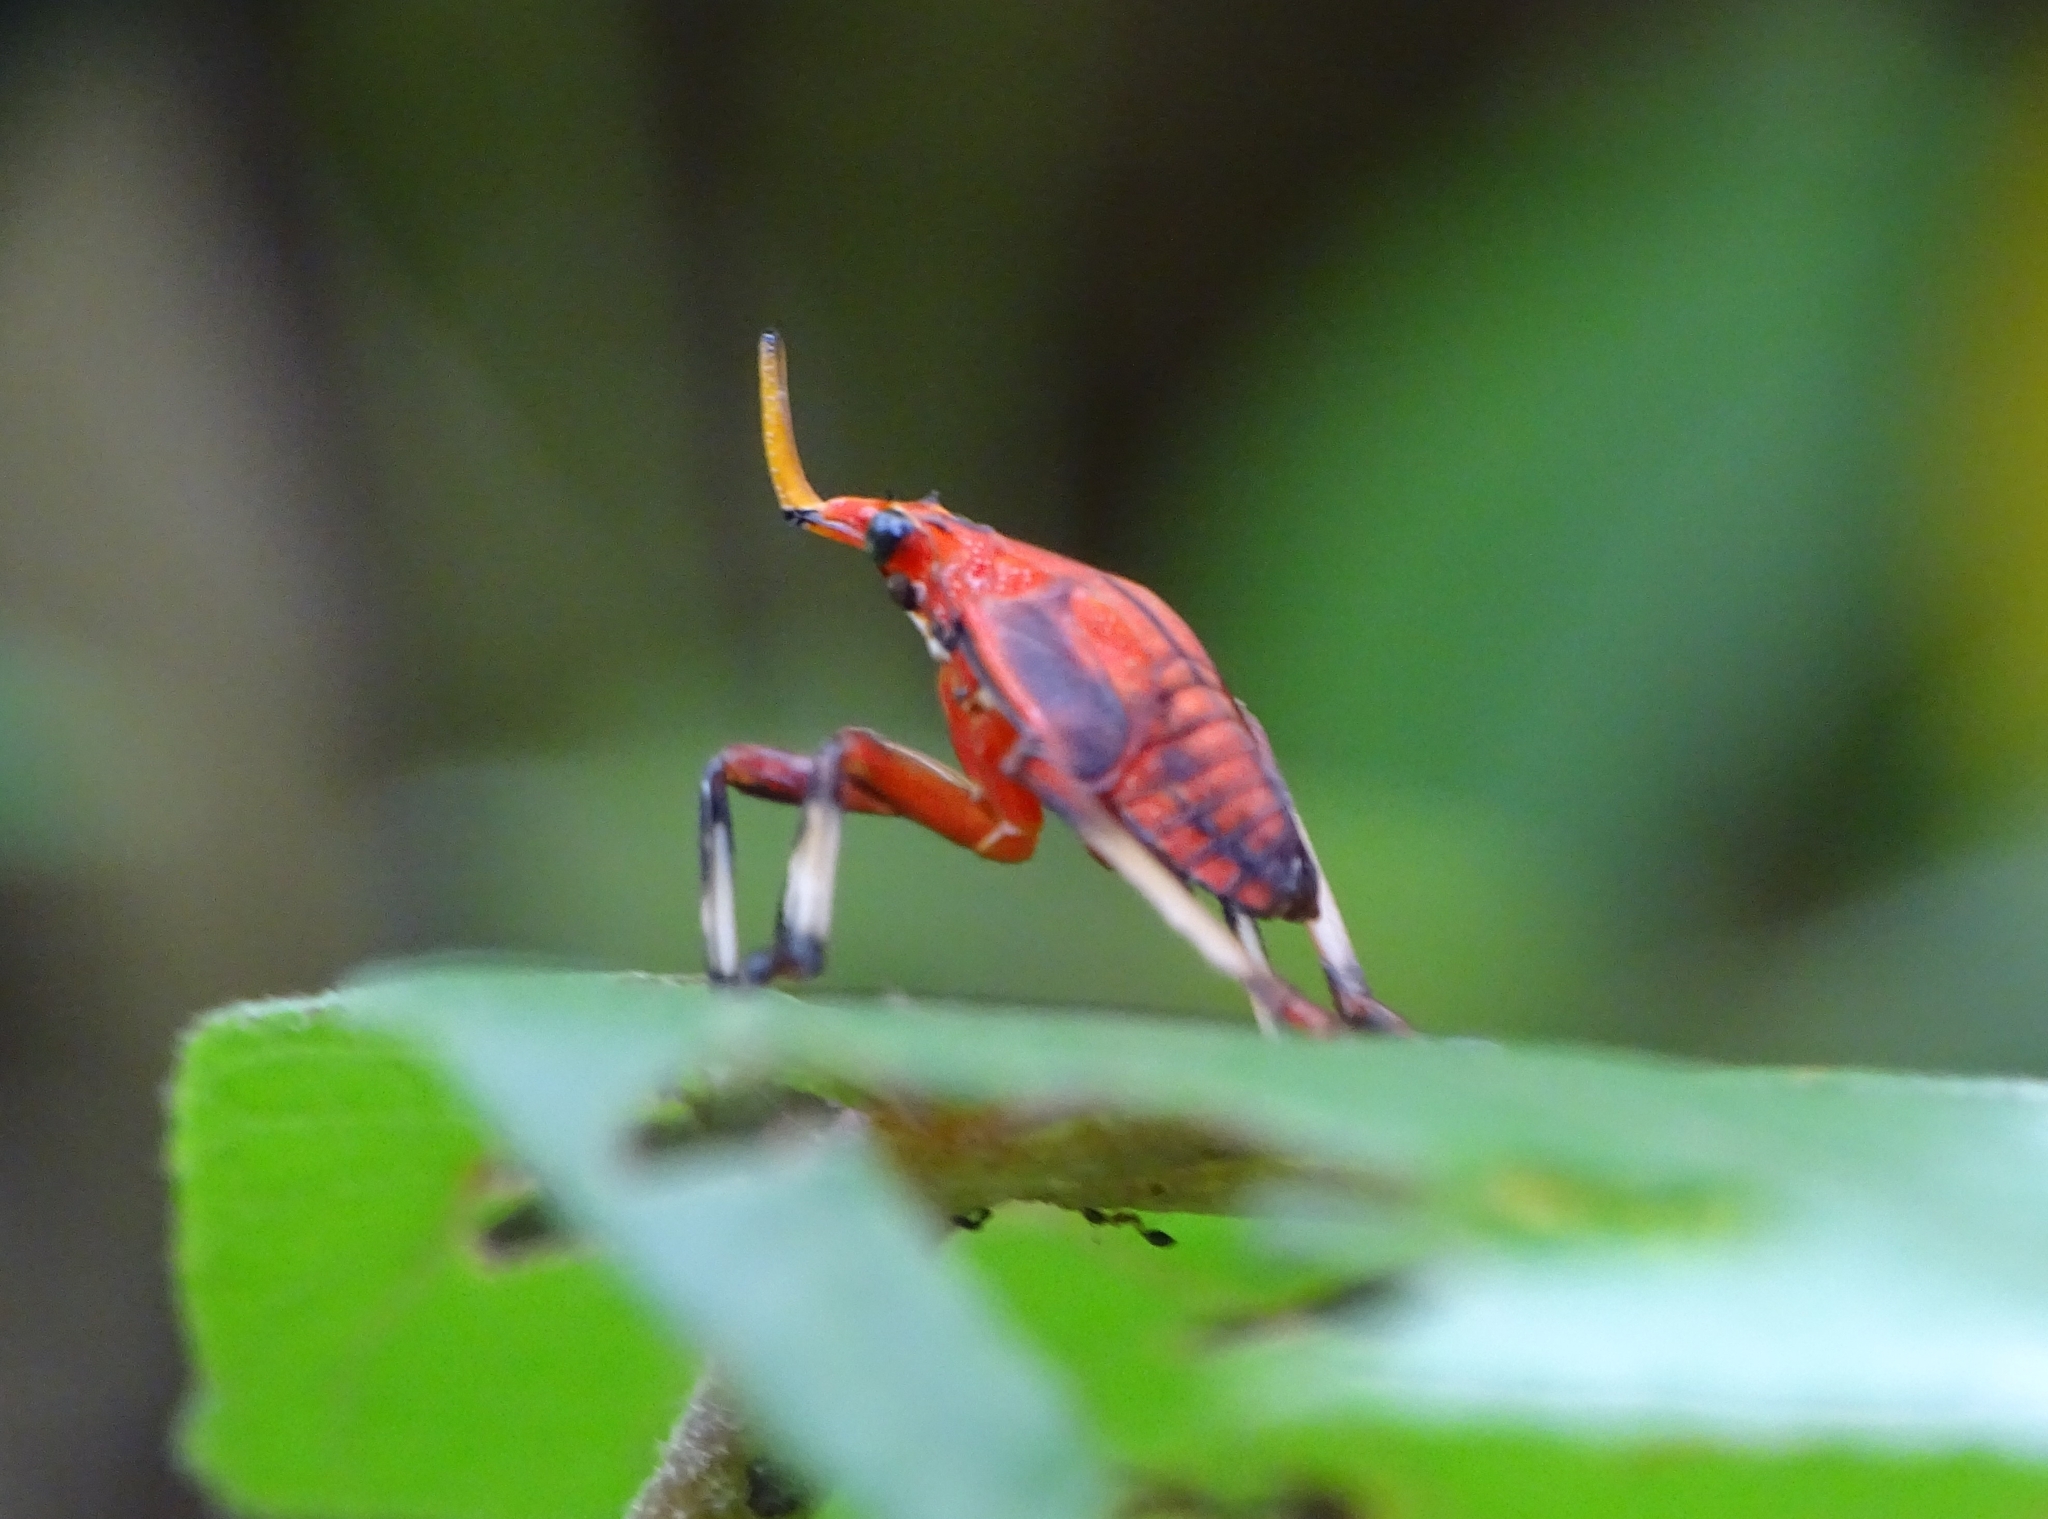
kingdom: Animalia
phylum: Arthropoda
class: Insecta
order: Hemiptera
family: Fulgoridae
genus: Kalidasa
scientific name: Kalidasa lanata
